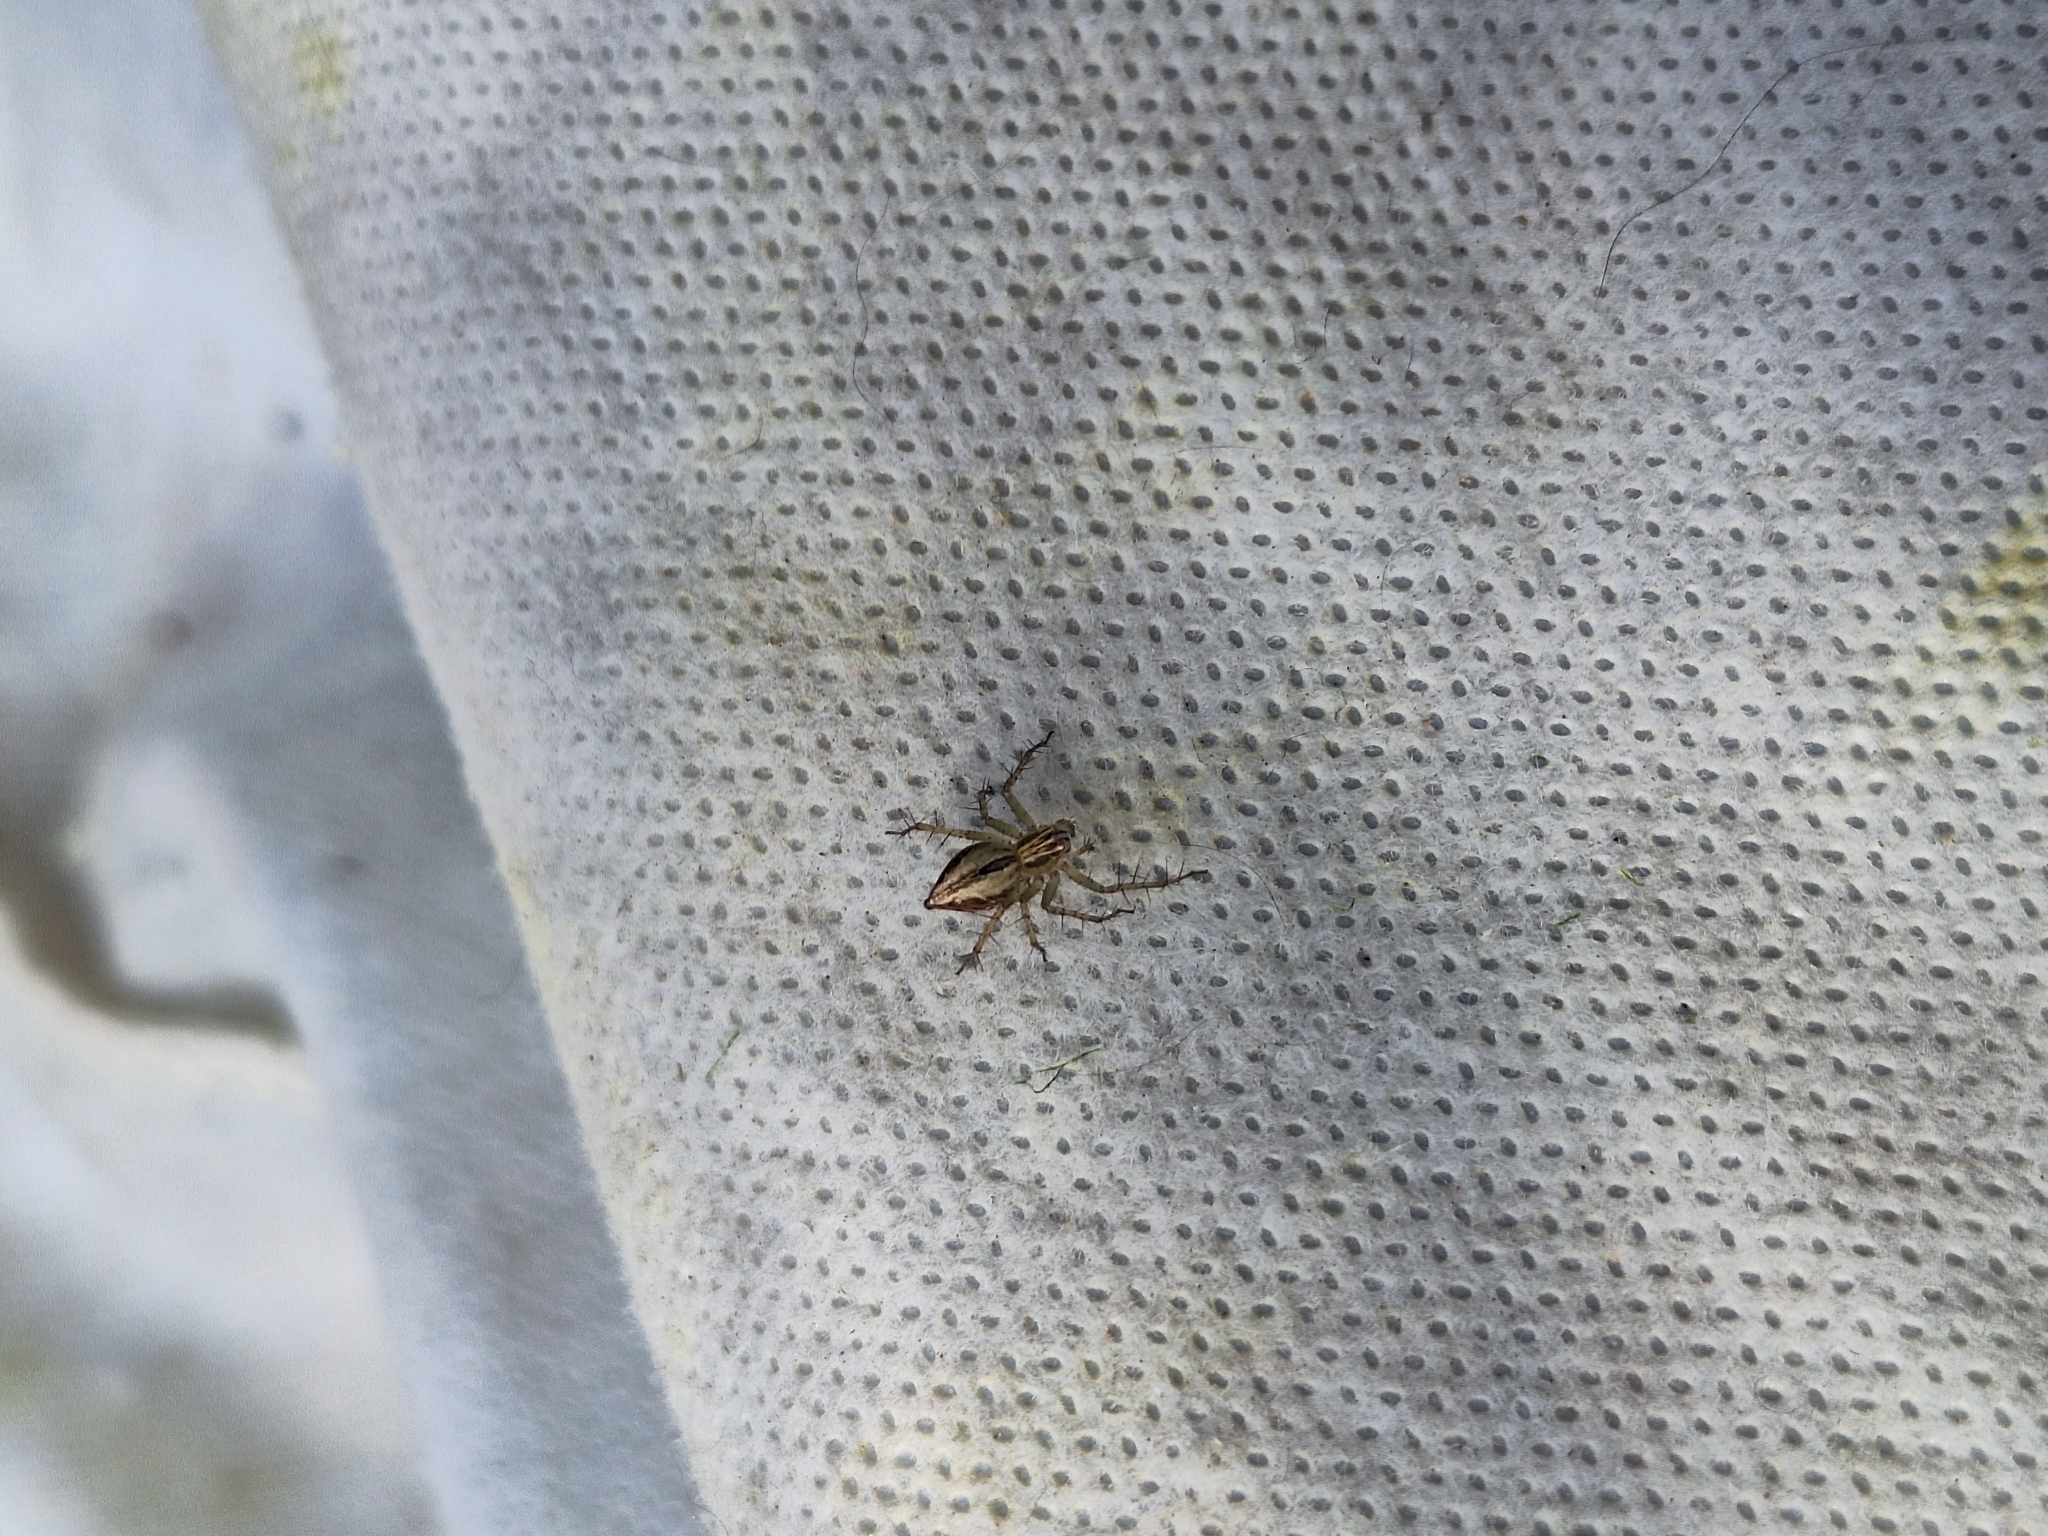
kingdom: Animalia
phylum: Arthropoda
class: Arachnida
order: Araneae
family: Oxyopidae
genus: Oxyopes
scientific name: Oxyopes salticus
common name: Lynx spiders
